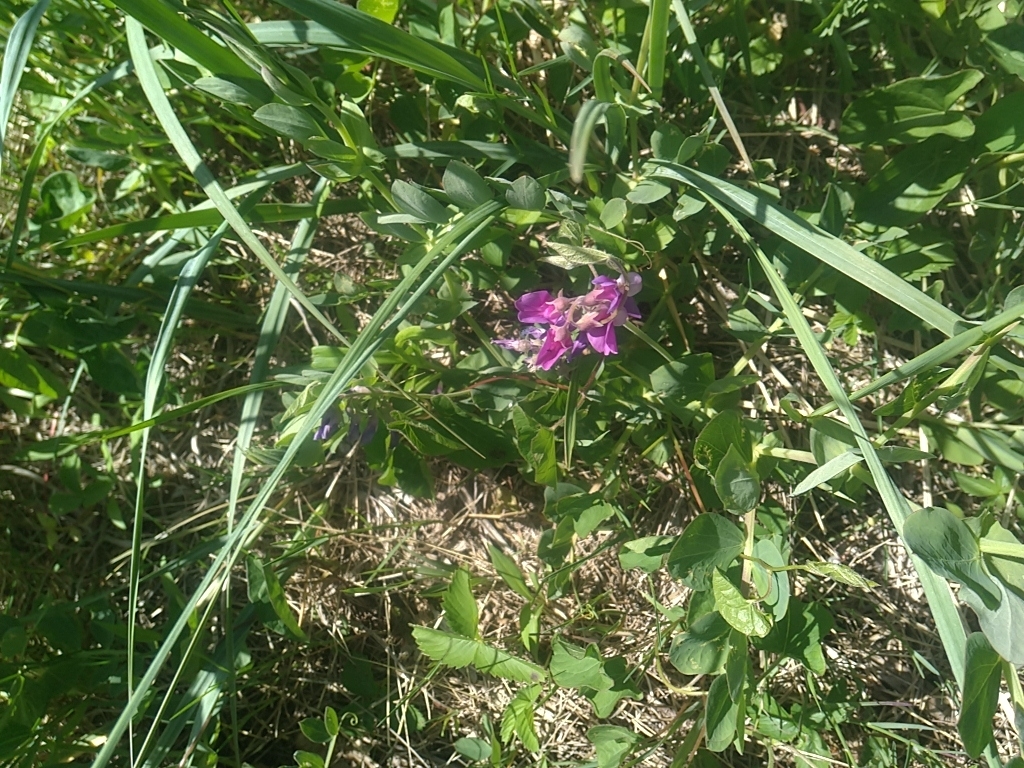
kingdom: Plantae
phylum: Tracheophyta
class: Magnoliopsida
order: Fabales
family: Fabaceae
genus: Lathyrus
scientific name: Lathyrus japonicus
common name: Sea pea
